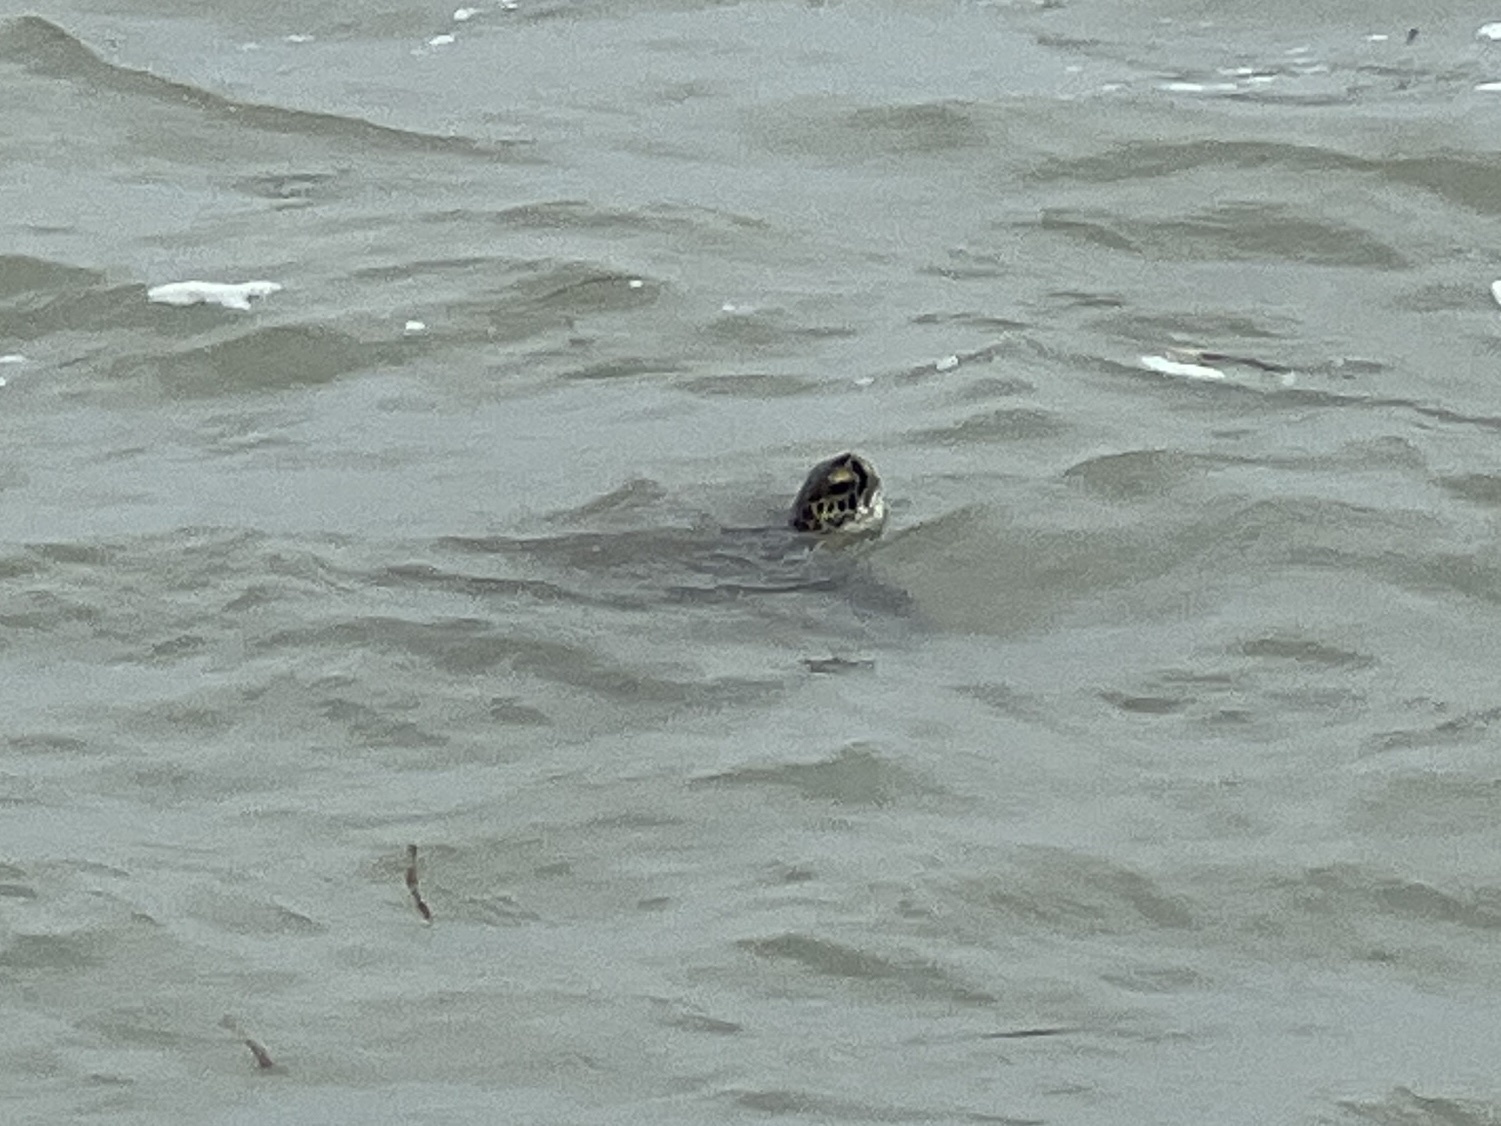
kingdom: Animalia
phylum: Chordata
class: Testudines
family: Cheloniidae
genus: Chelonia
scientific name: Chelonia mydas
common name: Green turtle
